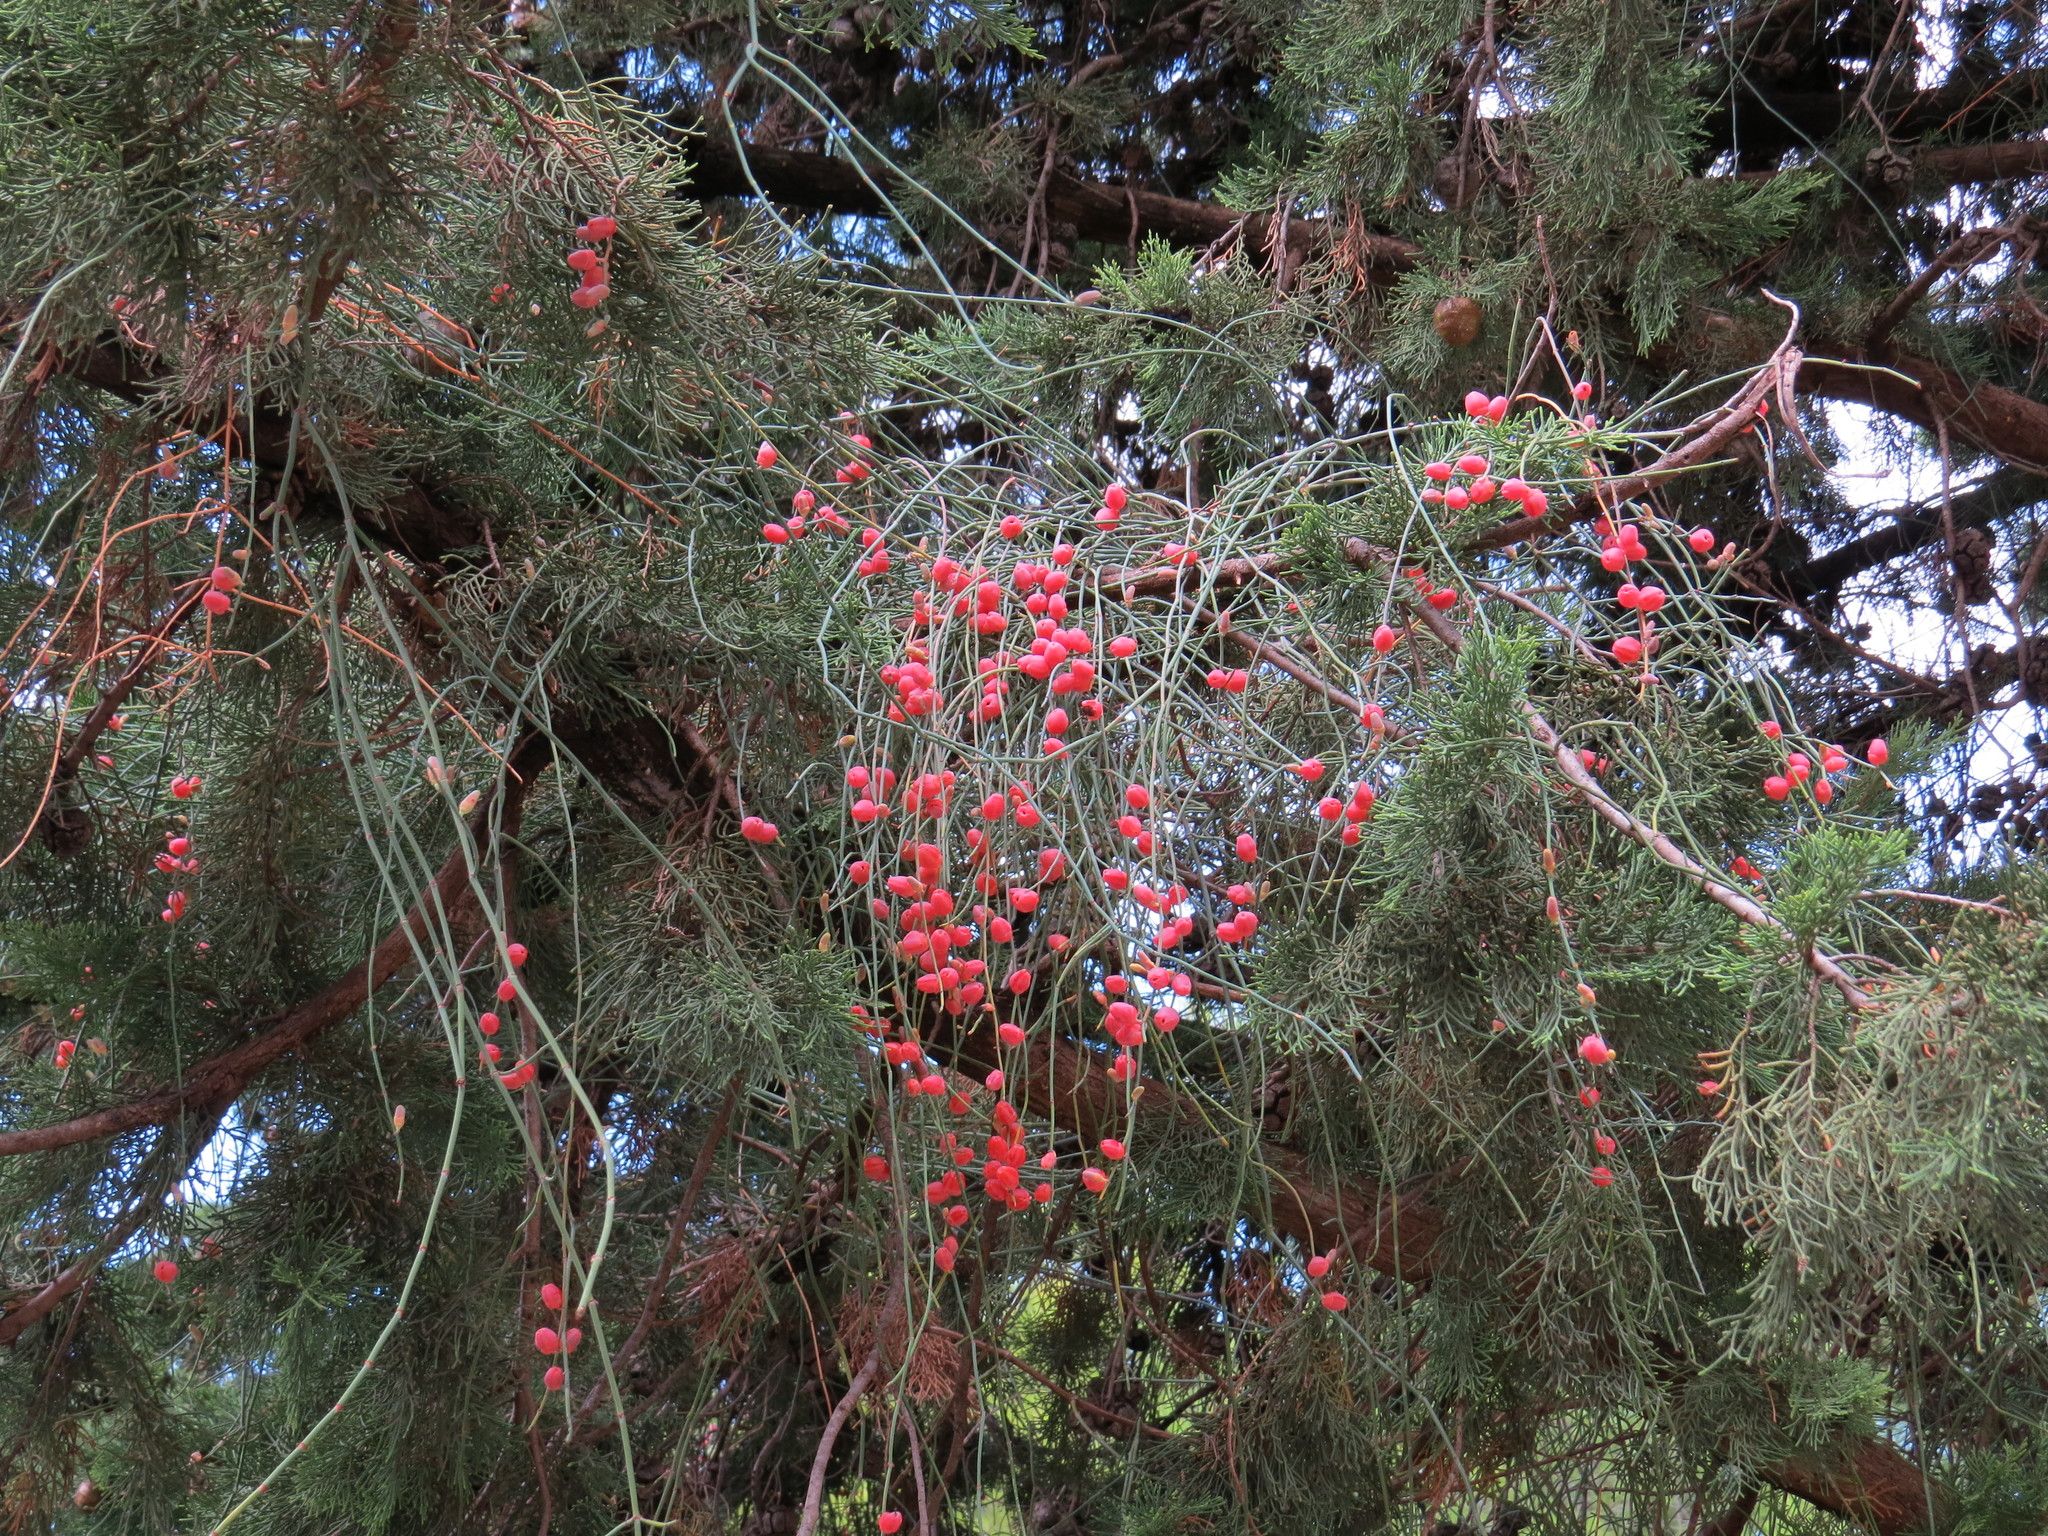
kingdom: Plantae
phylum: Tracheophyta
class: Gnetopsida
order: Ephedrales
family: Ephedraceae
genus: Ephedra
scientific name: Ephedra foeminea
